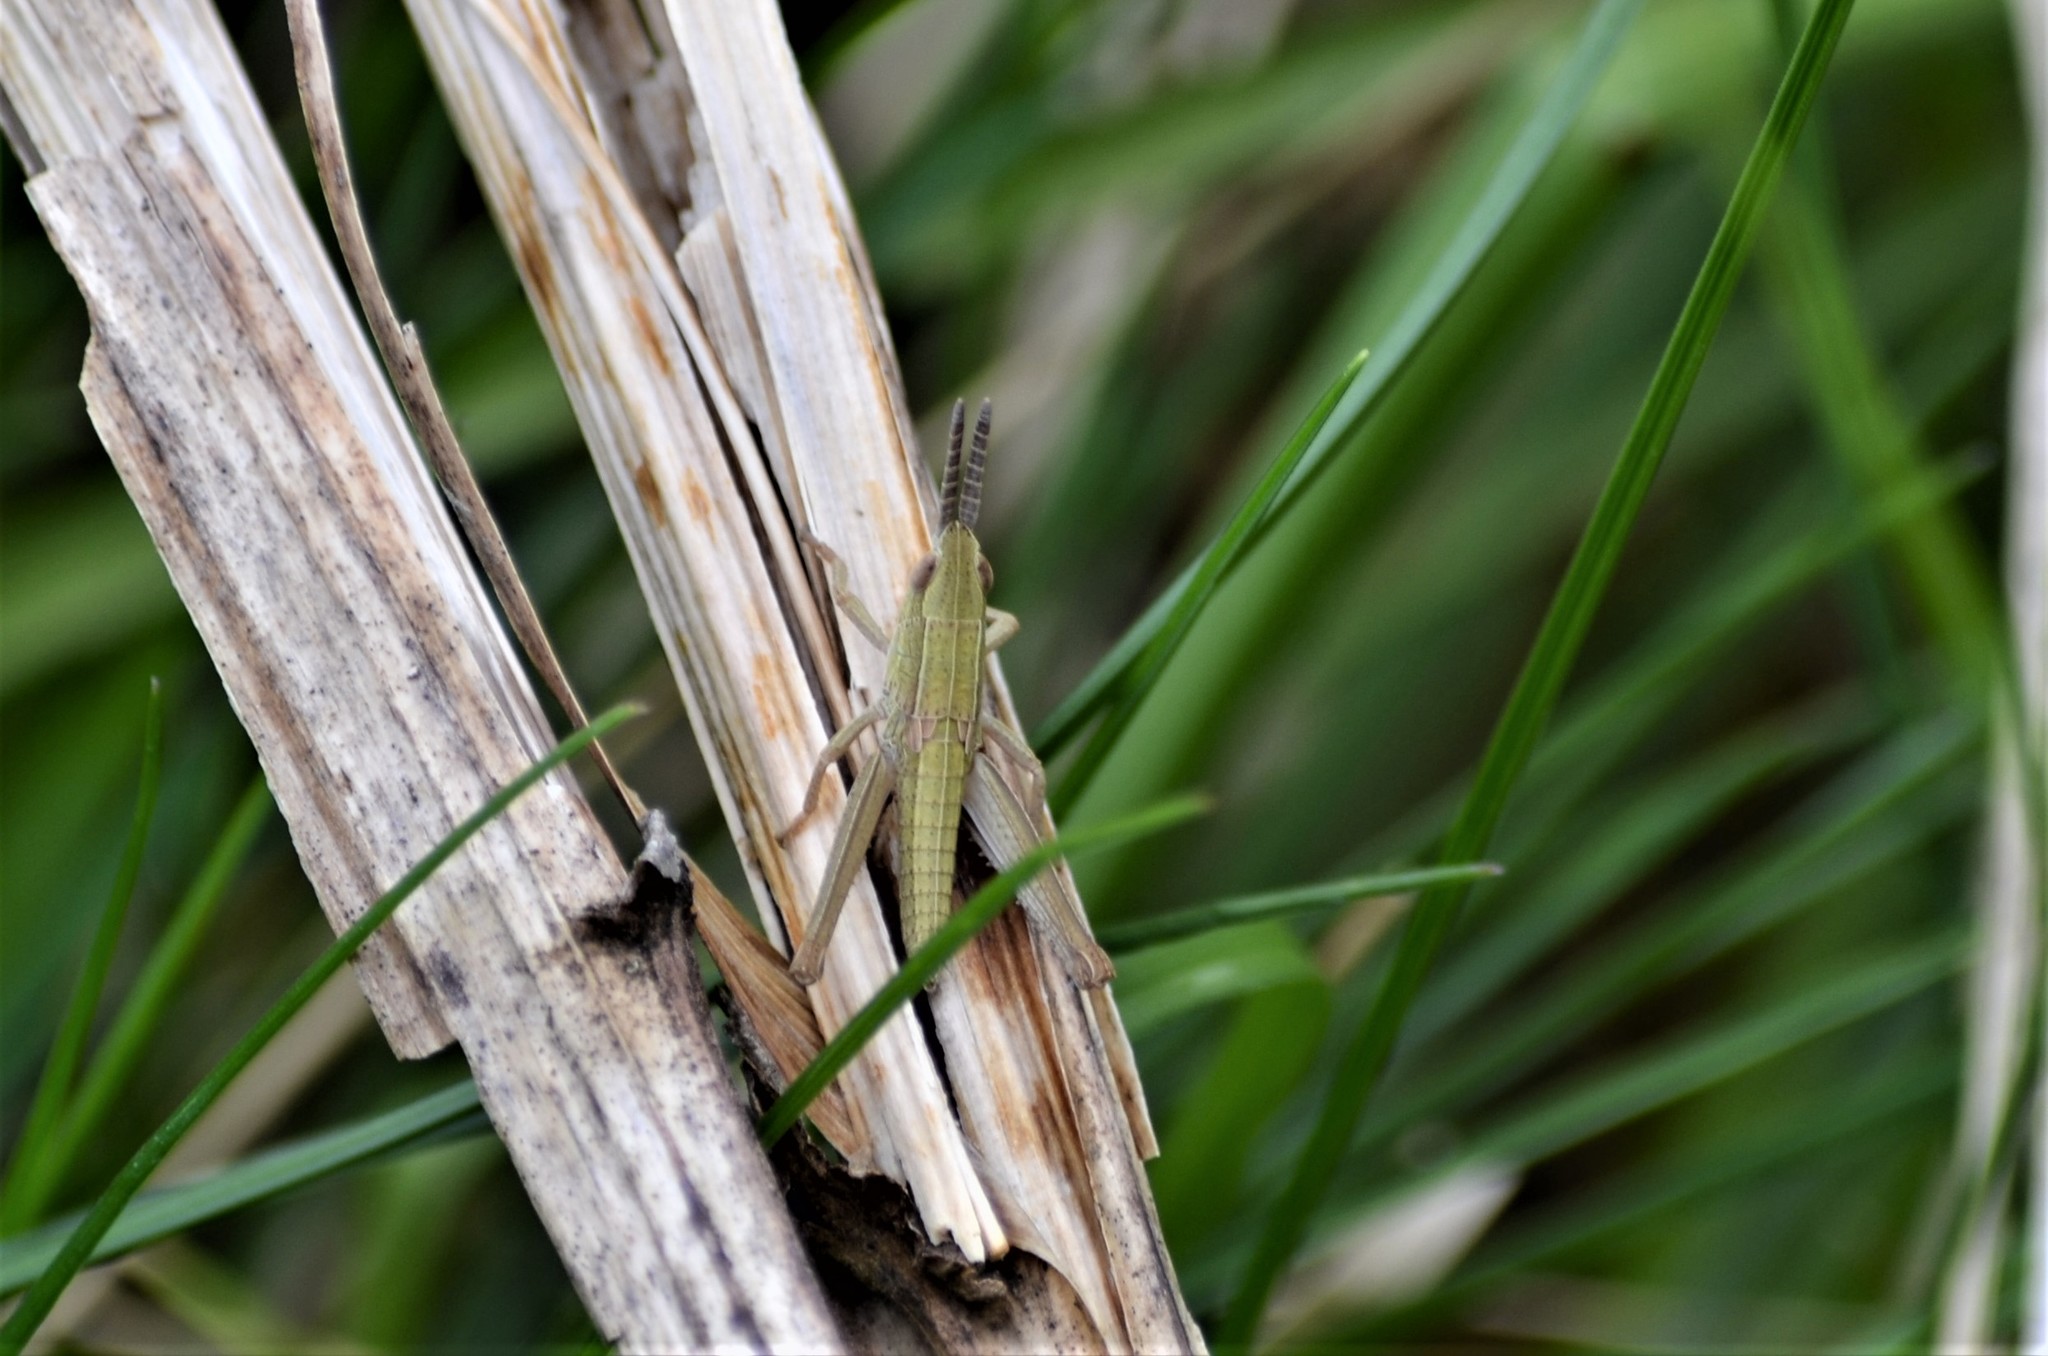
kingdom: Animalia
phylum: Arthropoda
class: Insecta
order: Orthoptera
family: Acrididae
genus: Euthystira
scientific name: Euthystira brachyptera
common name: Small gold grasshopper
